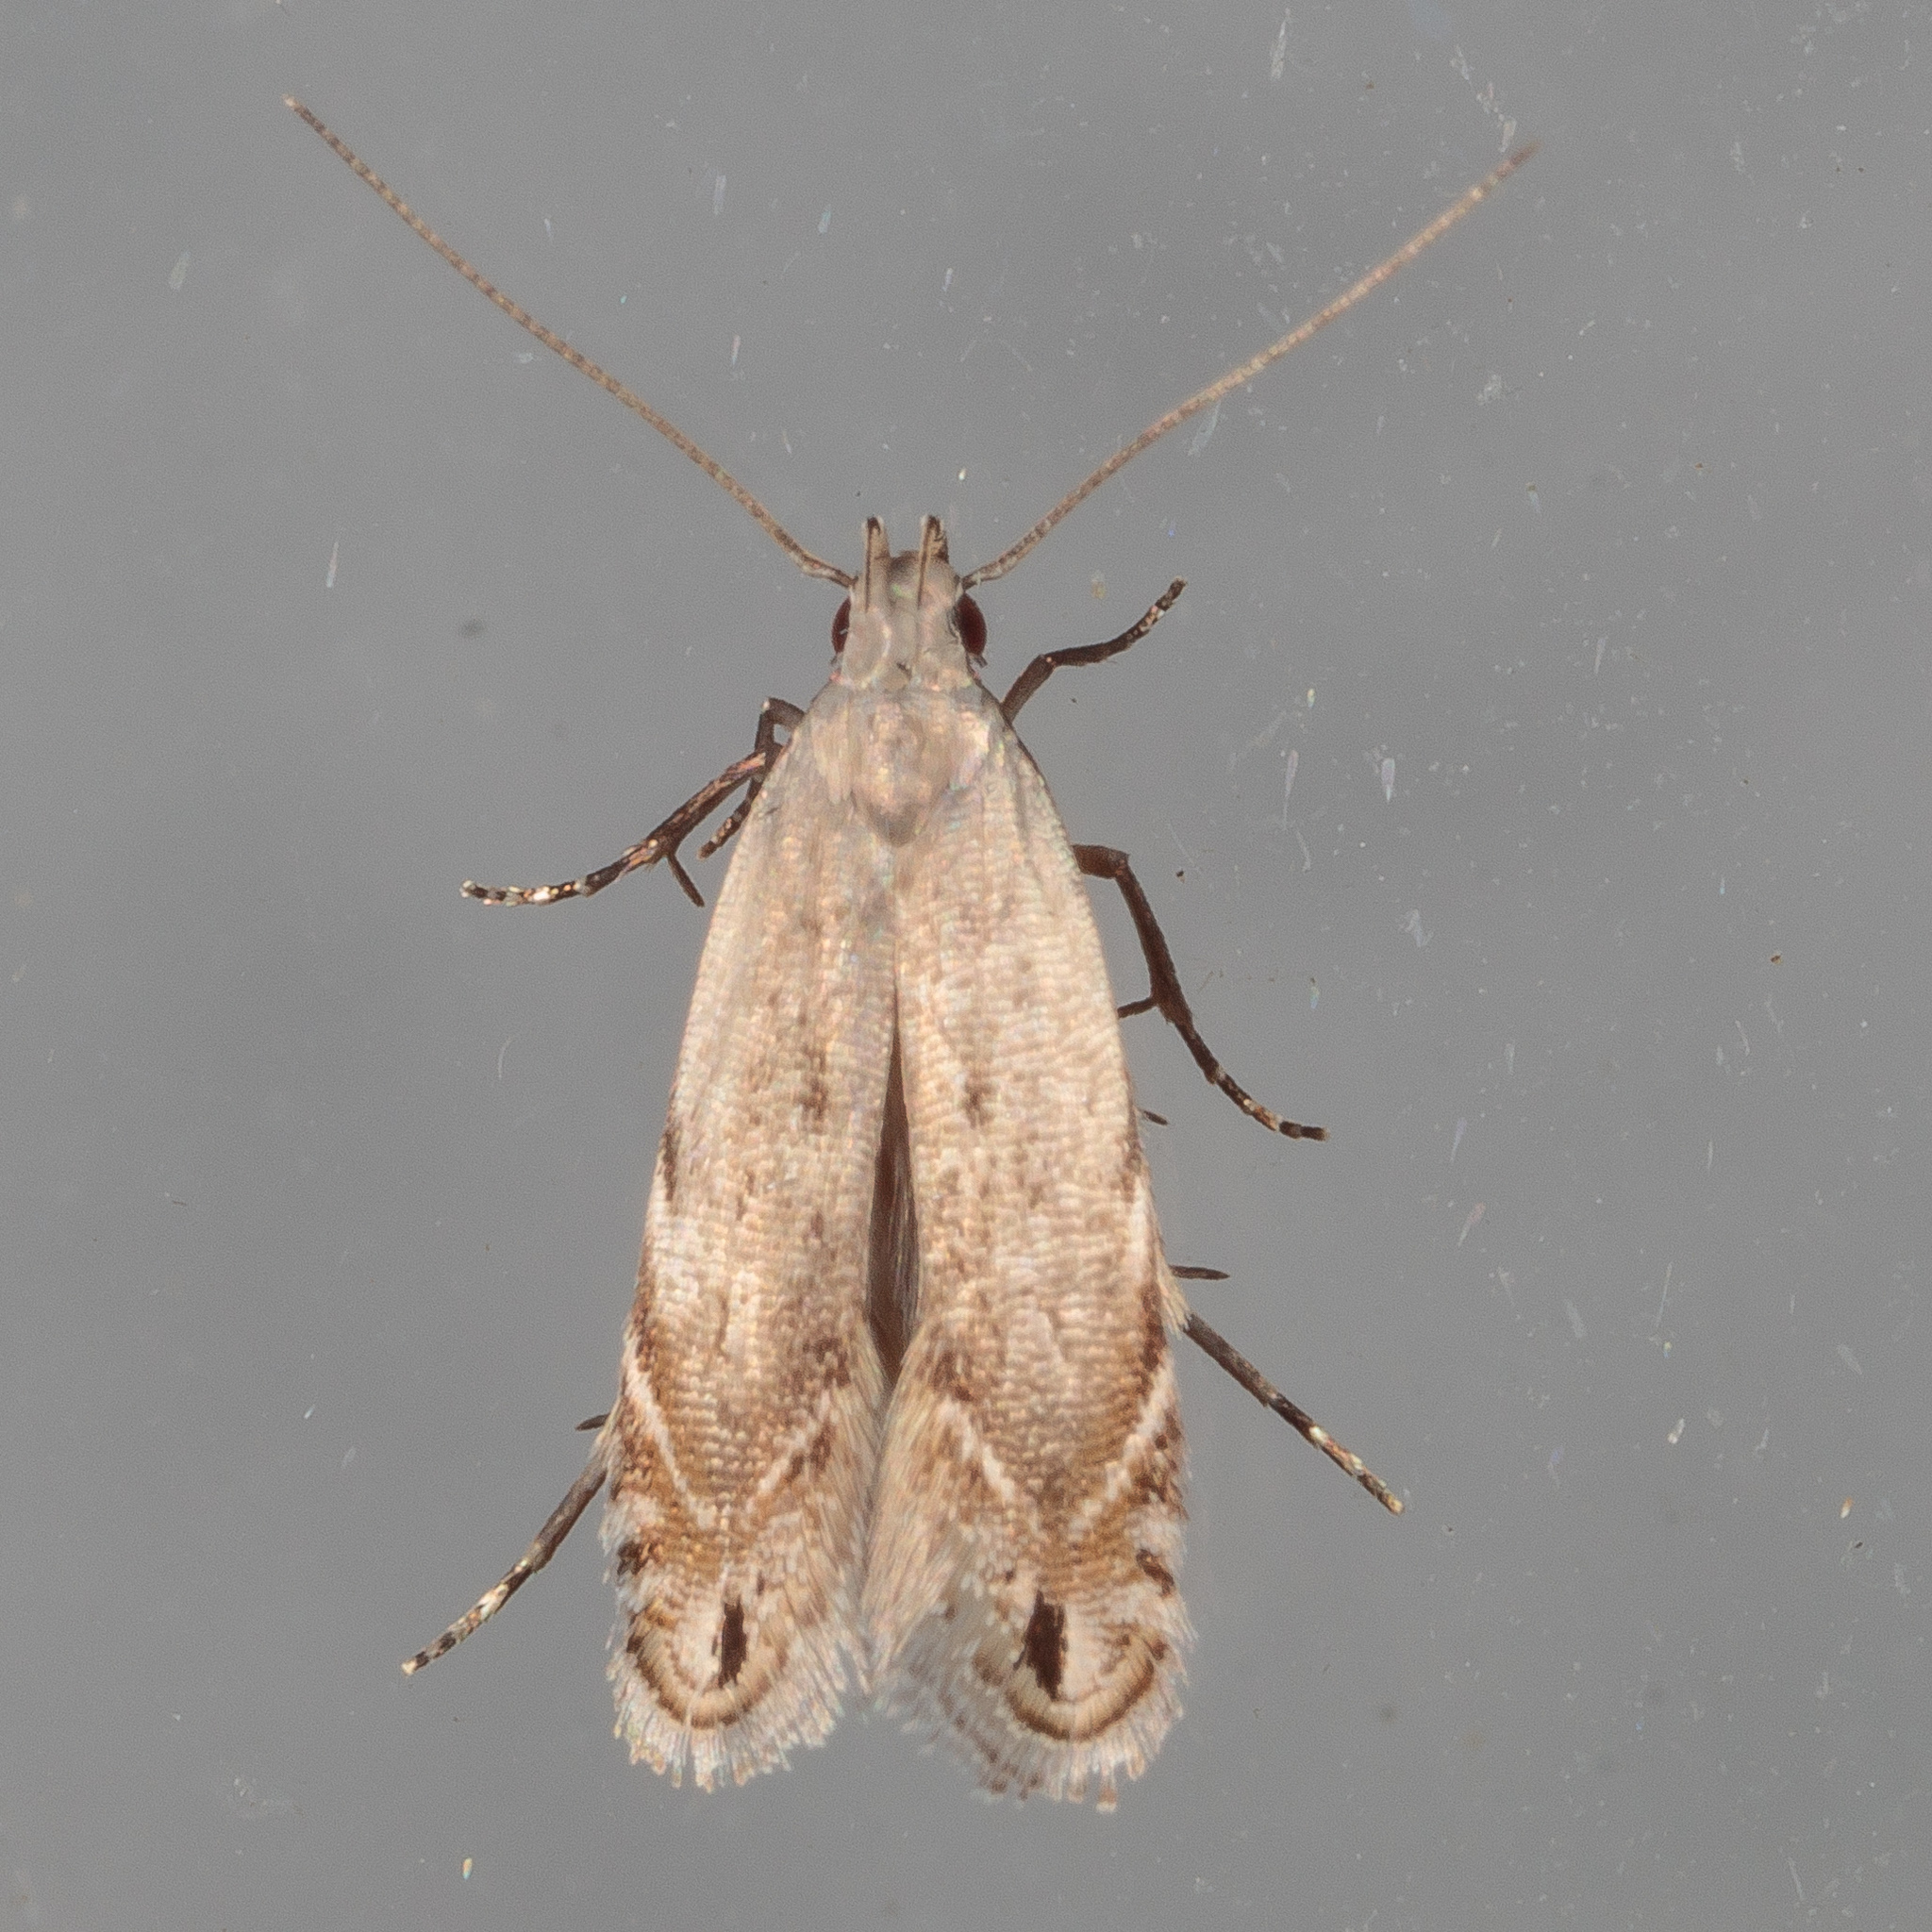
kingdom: Animalia
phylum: Arthropoda
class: Insecta
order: Lepidoptera
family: Gelechiidae
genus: Battaristis
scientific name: Battaristis concinnusella
